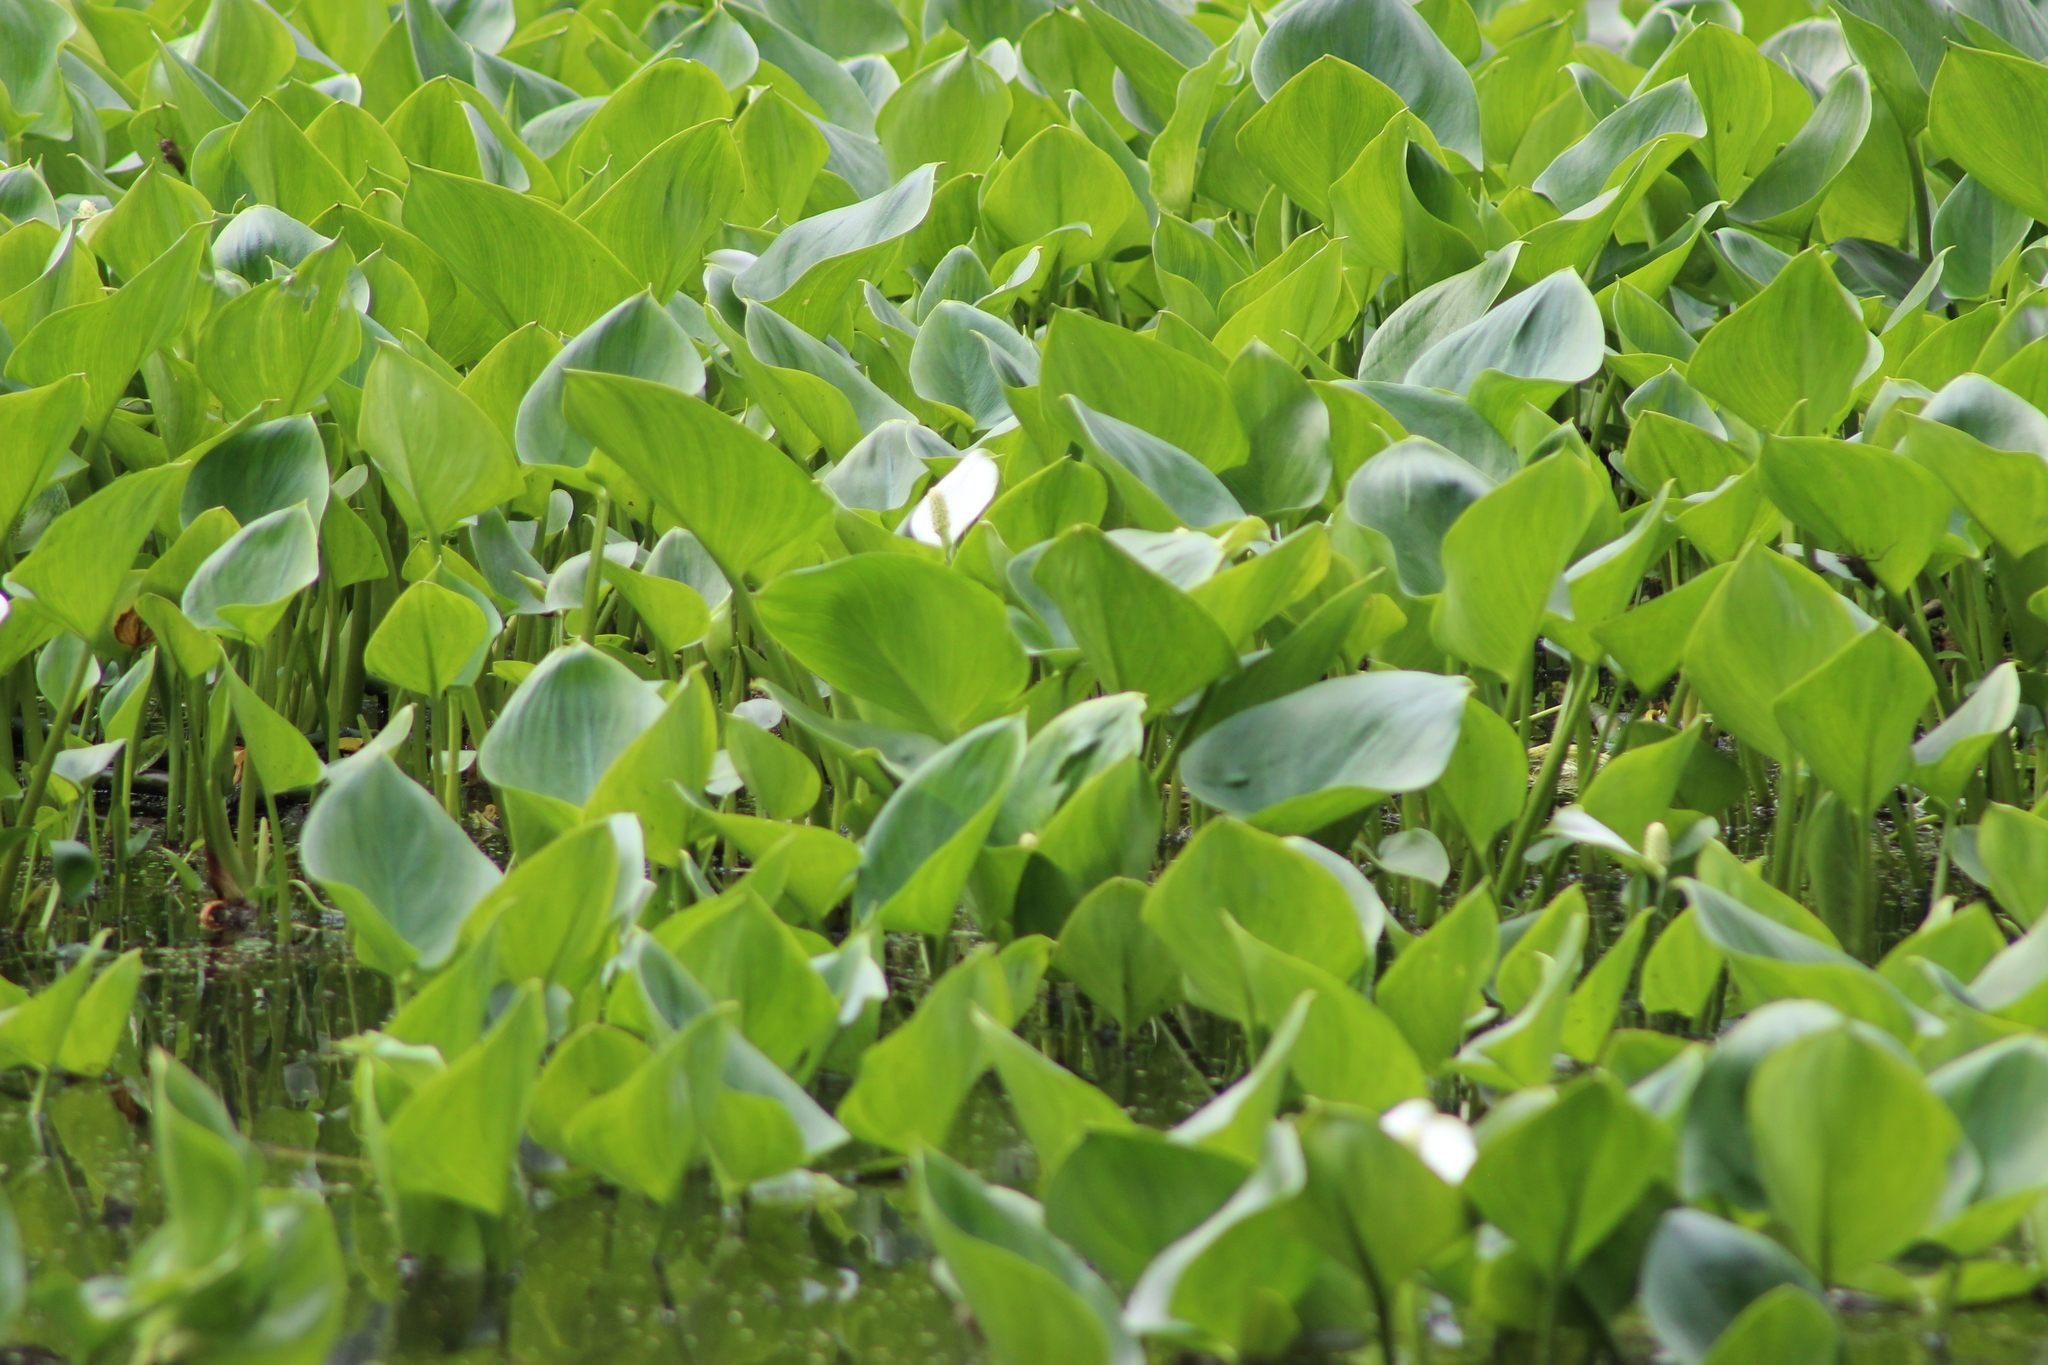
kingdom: Plantae
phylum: Tracheophyta
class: Liliopsida
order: Alismatales
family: Araceae
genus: Calla
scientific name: Calla palustris
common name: Bog arum
